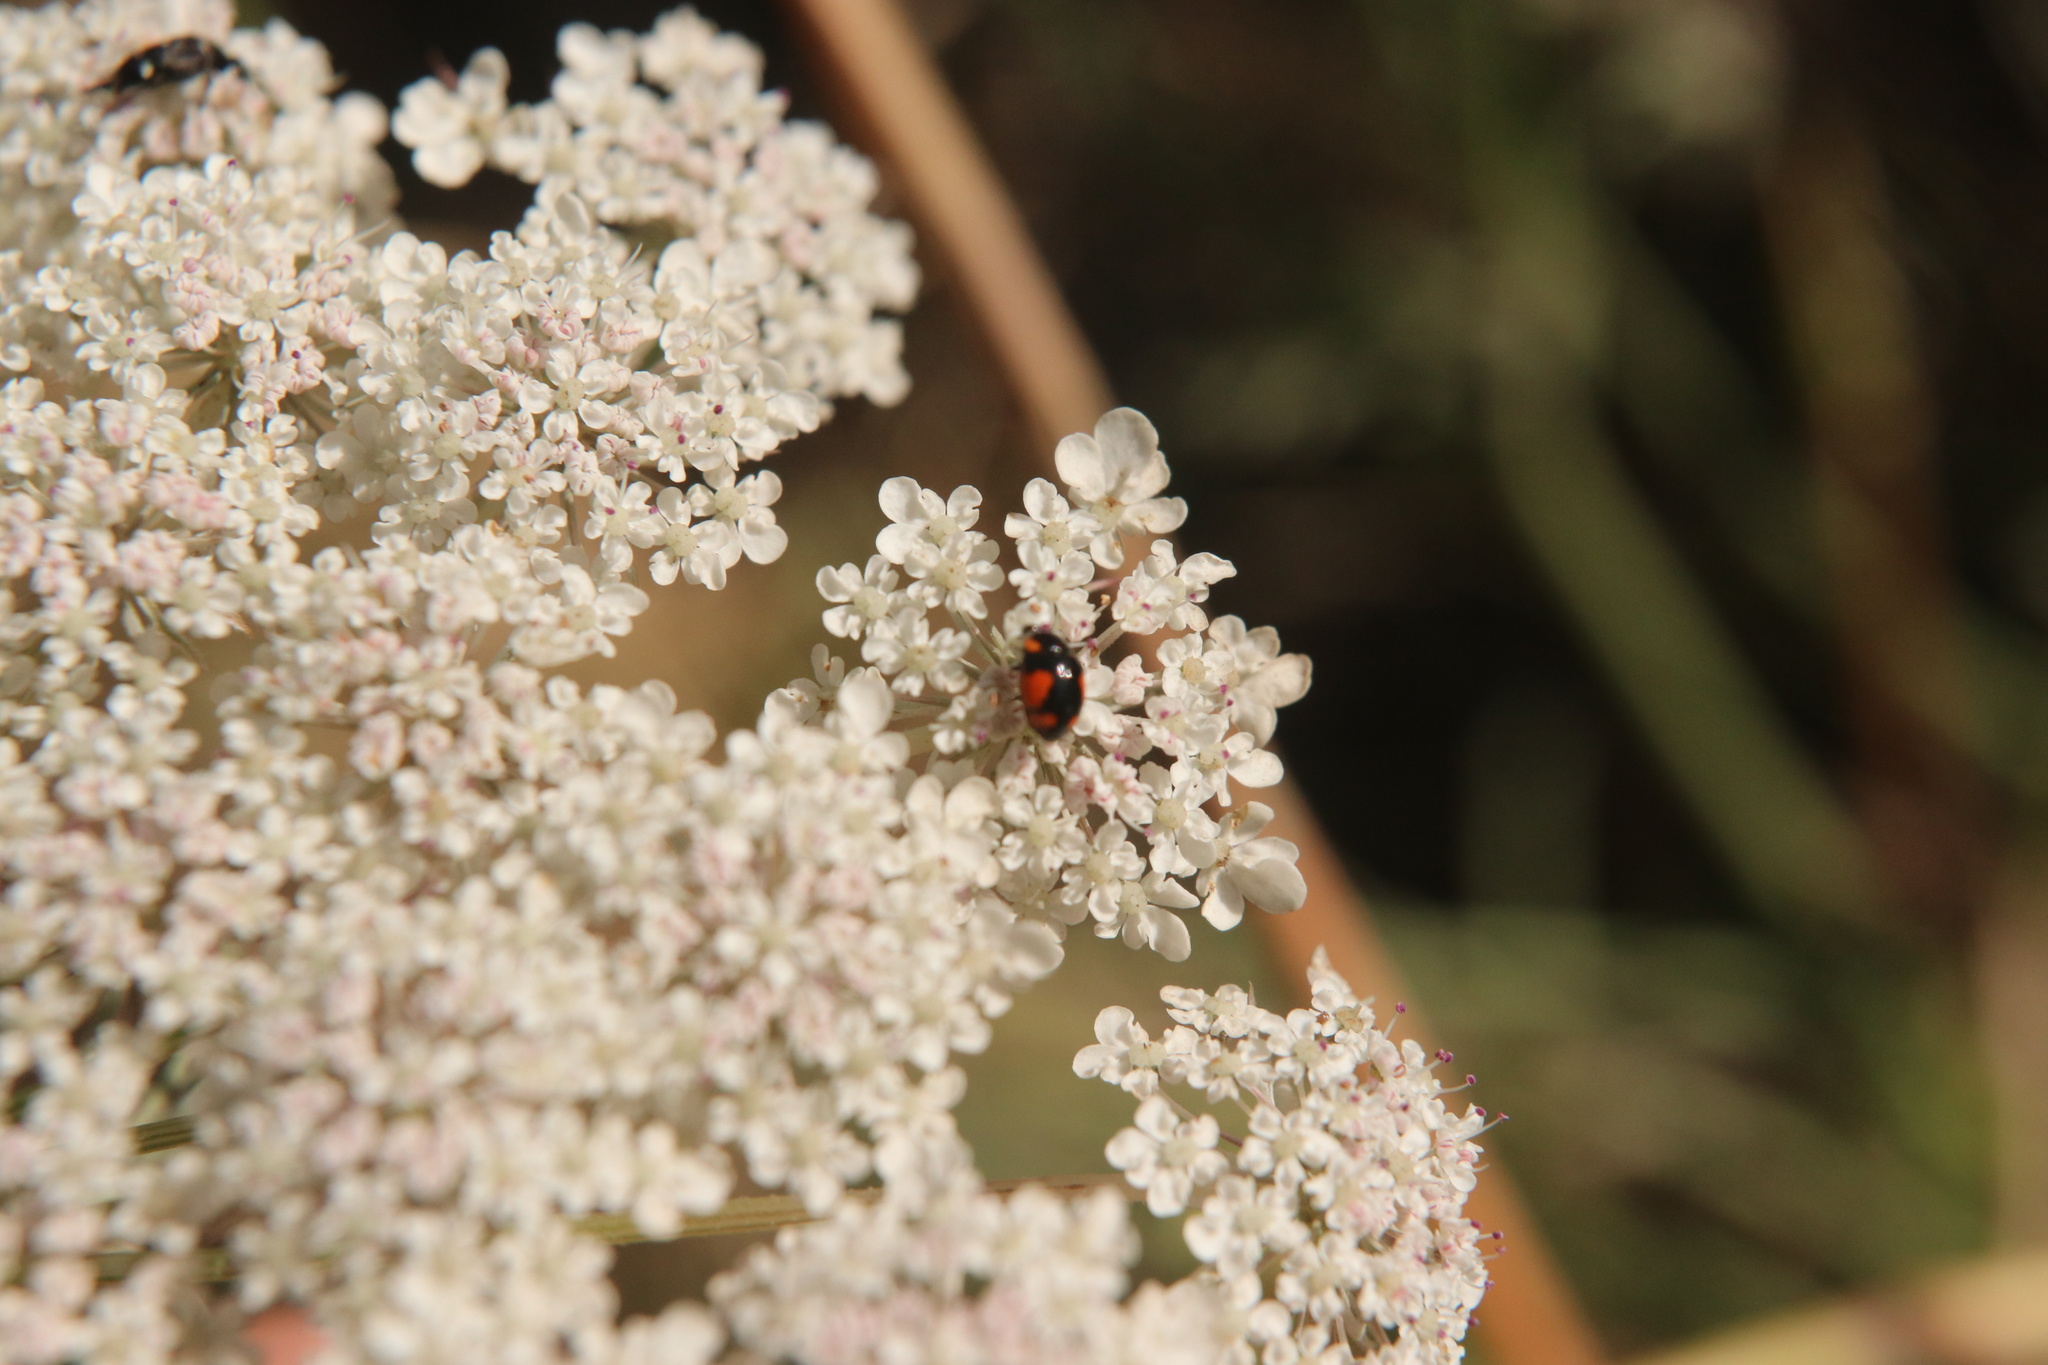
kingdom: Animalia
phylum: Arthropoda
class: Insecta
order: Coleoptera
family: Coccinellidae
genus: Hyperaspis
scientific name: Hyperaspis
